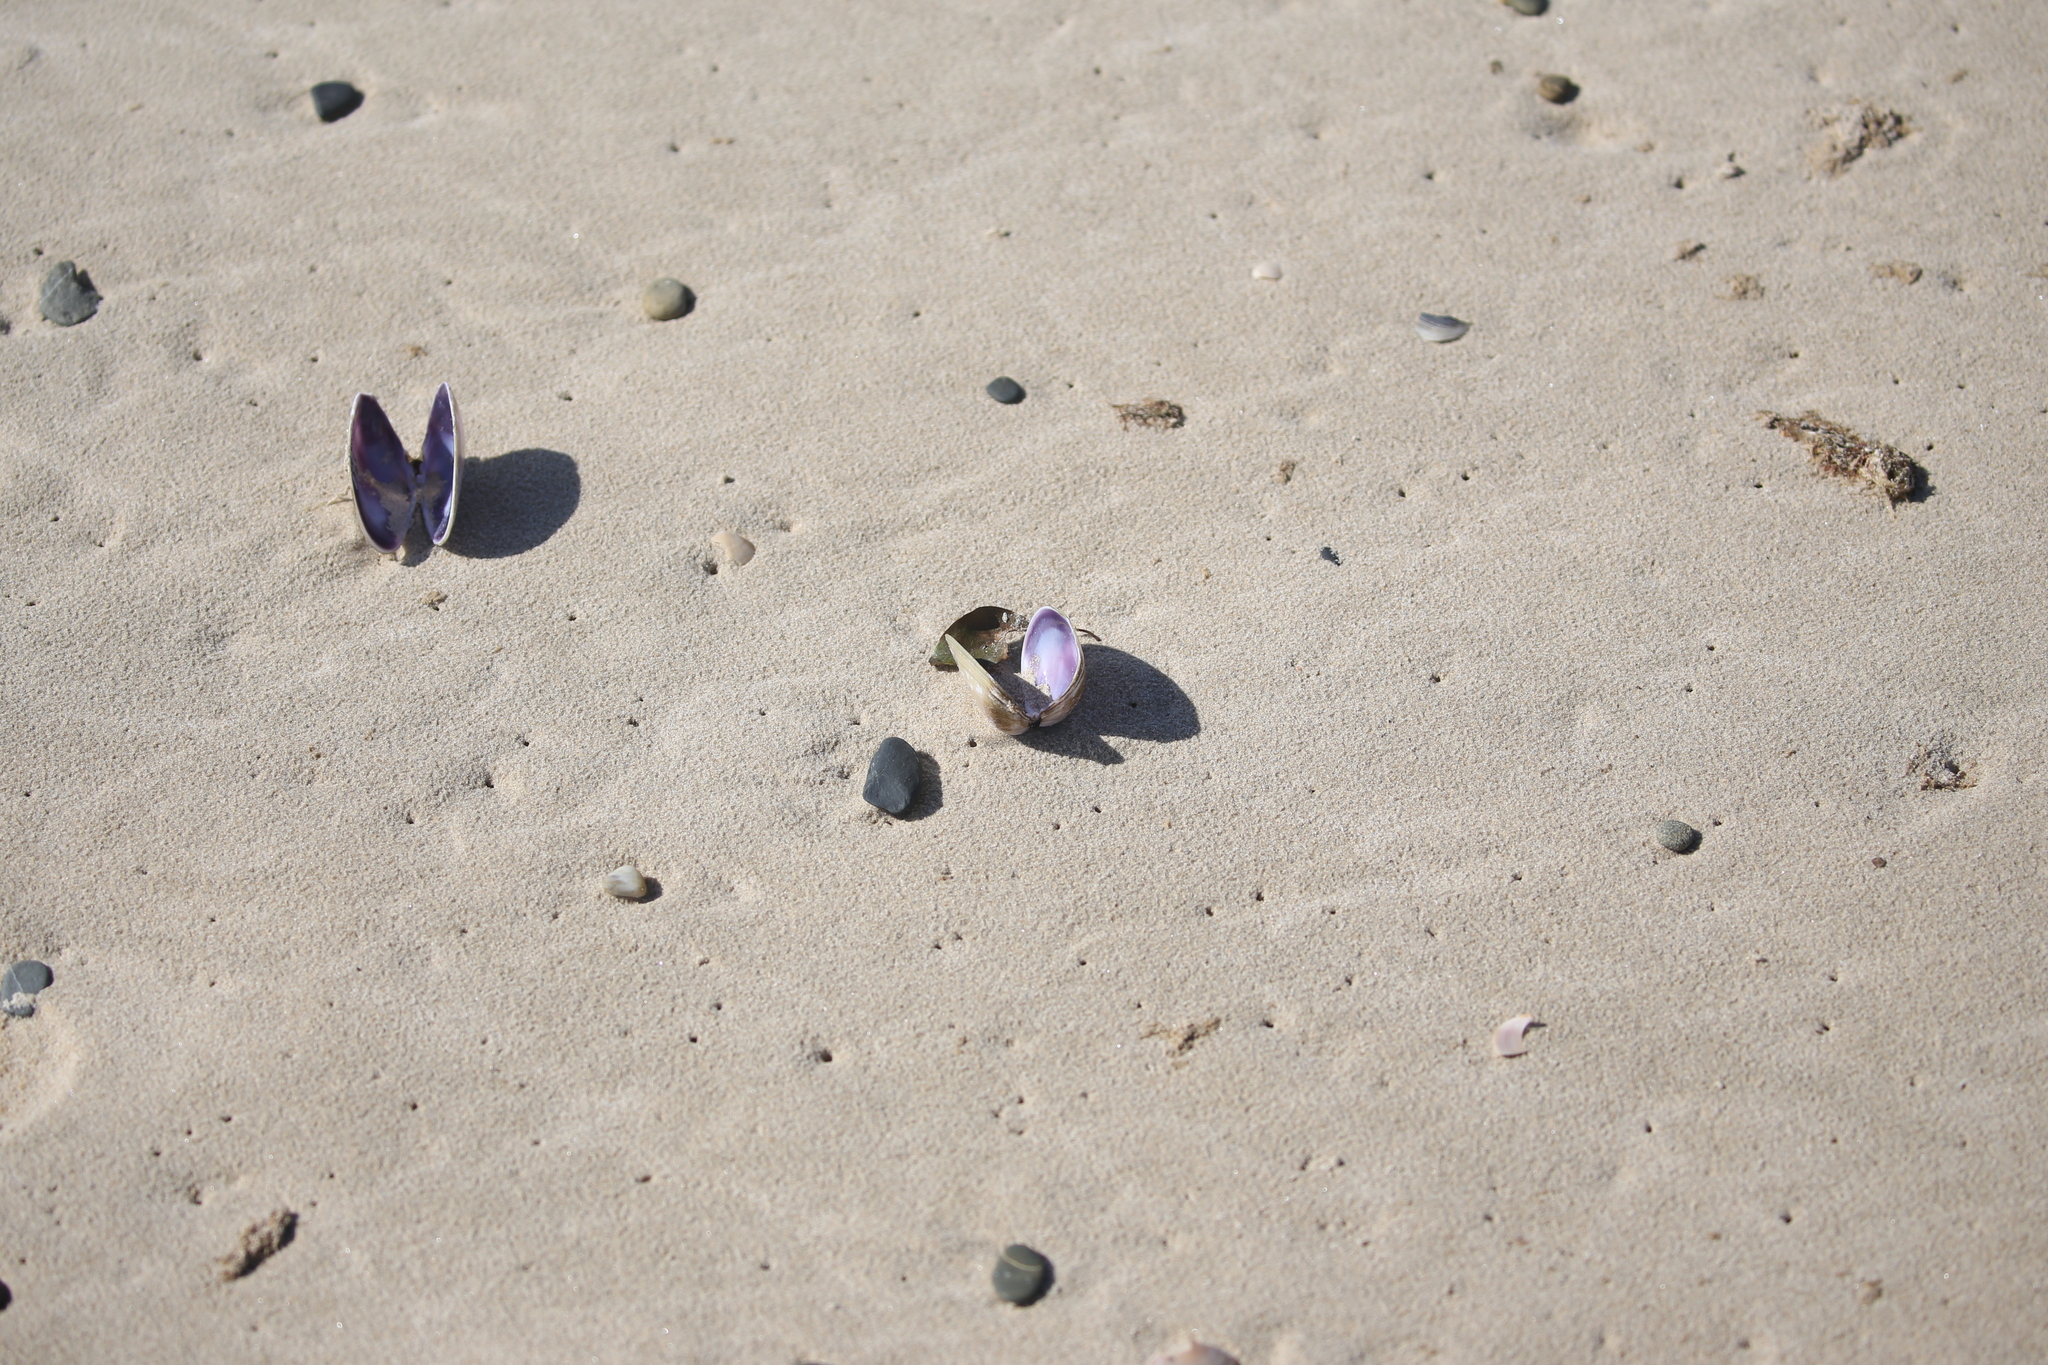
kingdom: Animalia
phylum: Mollusca
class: Bivalvia
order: Cardiida
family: Donacidae
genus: Latona
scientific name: Latona deltoides
